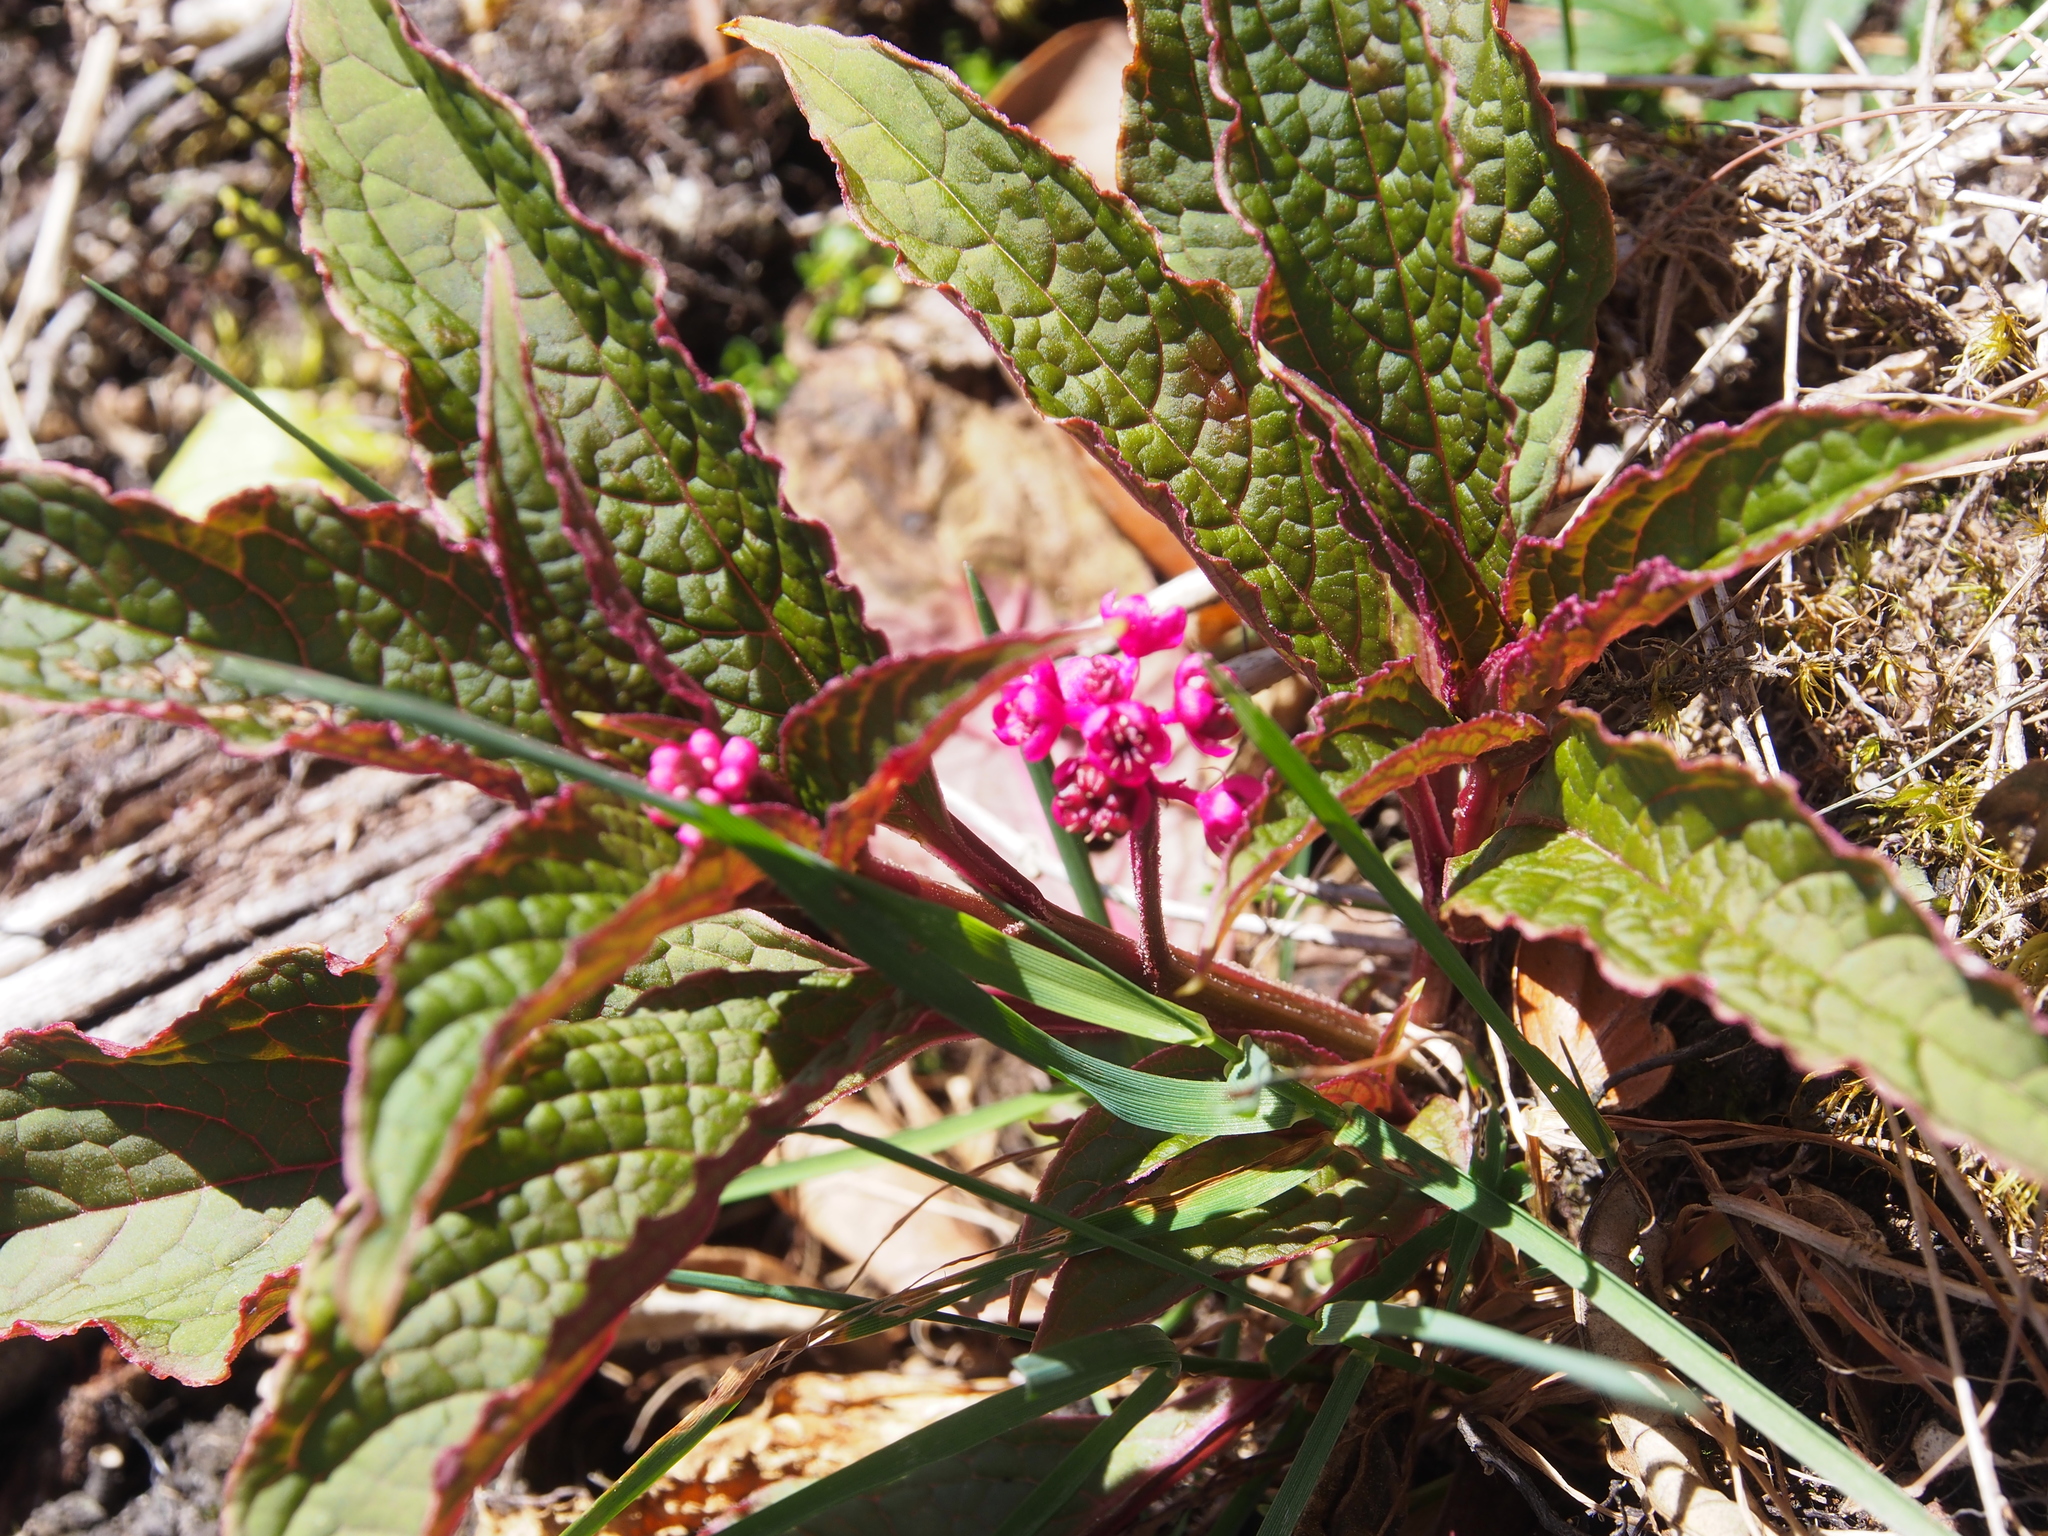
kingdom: Plantae
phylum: Tracheophyta
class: Magnoliopsida
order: Caryophyllales
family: Phytolaccaceae
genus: Phytolacca
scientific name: Phytolacca rugosa
